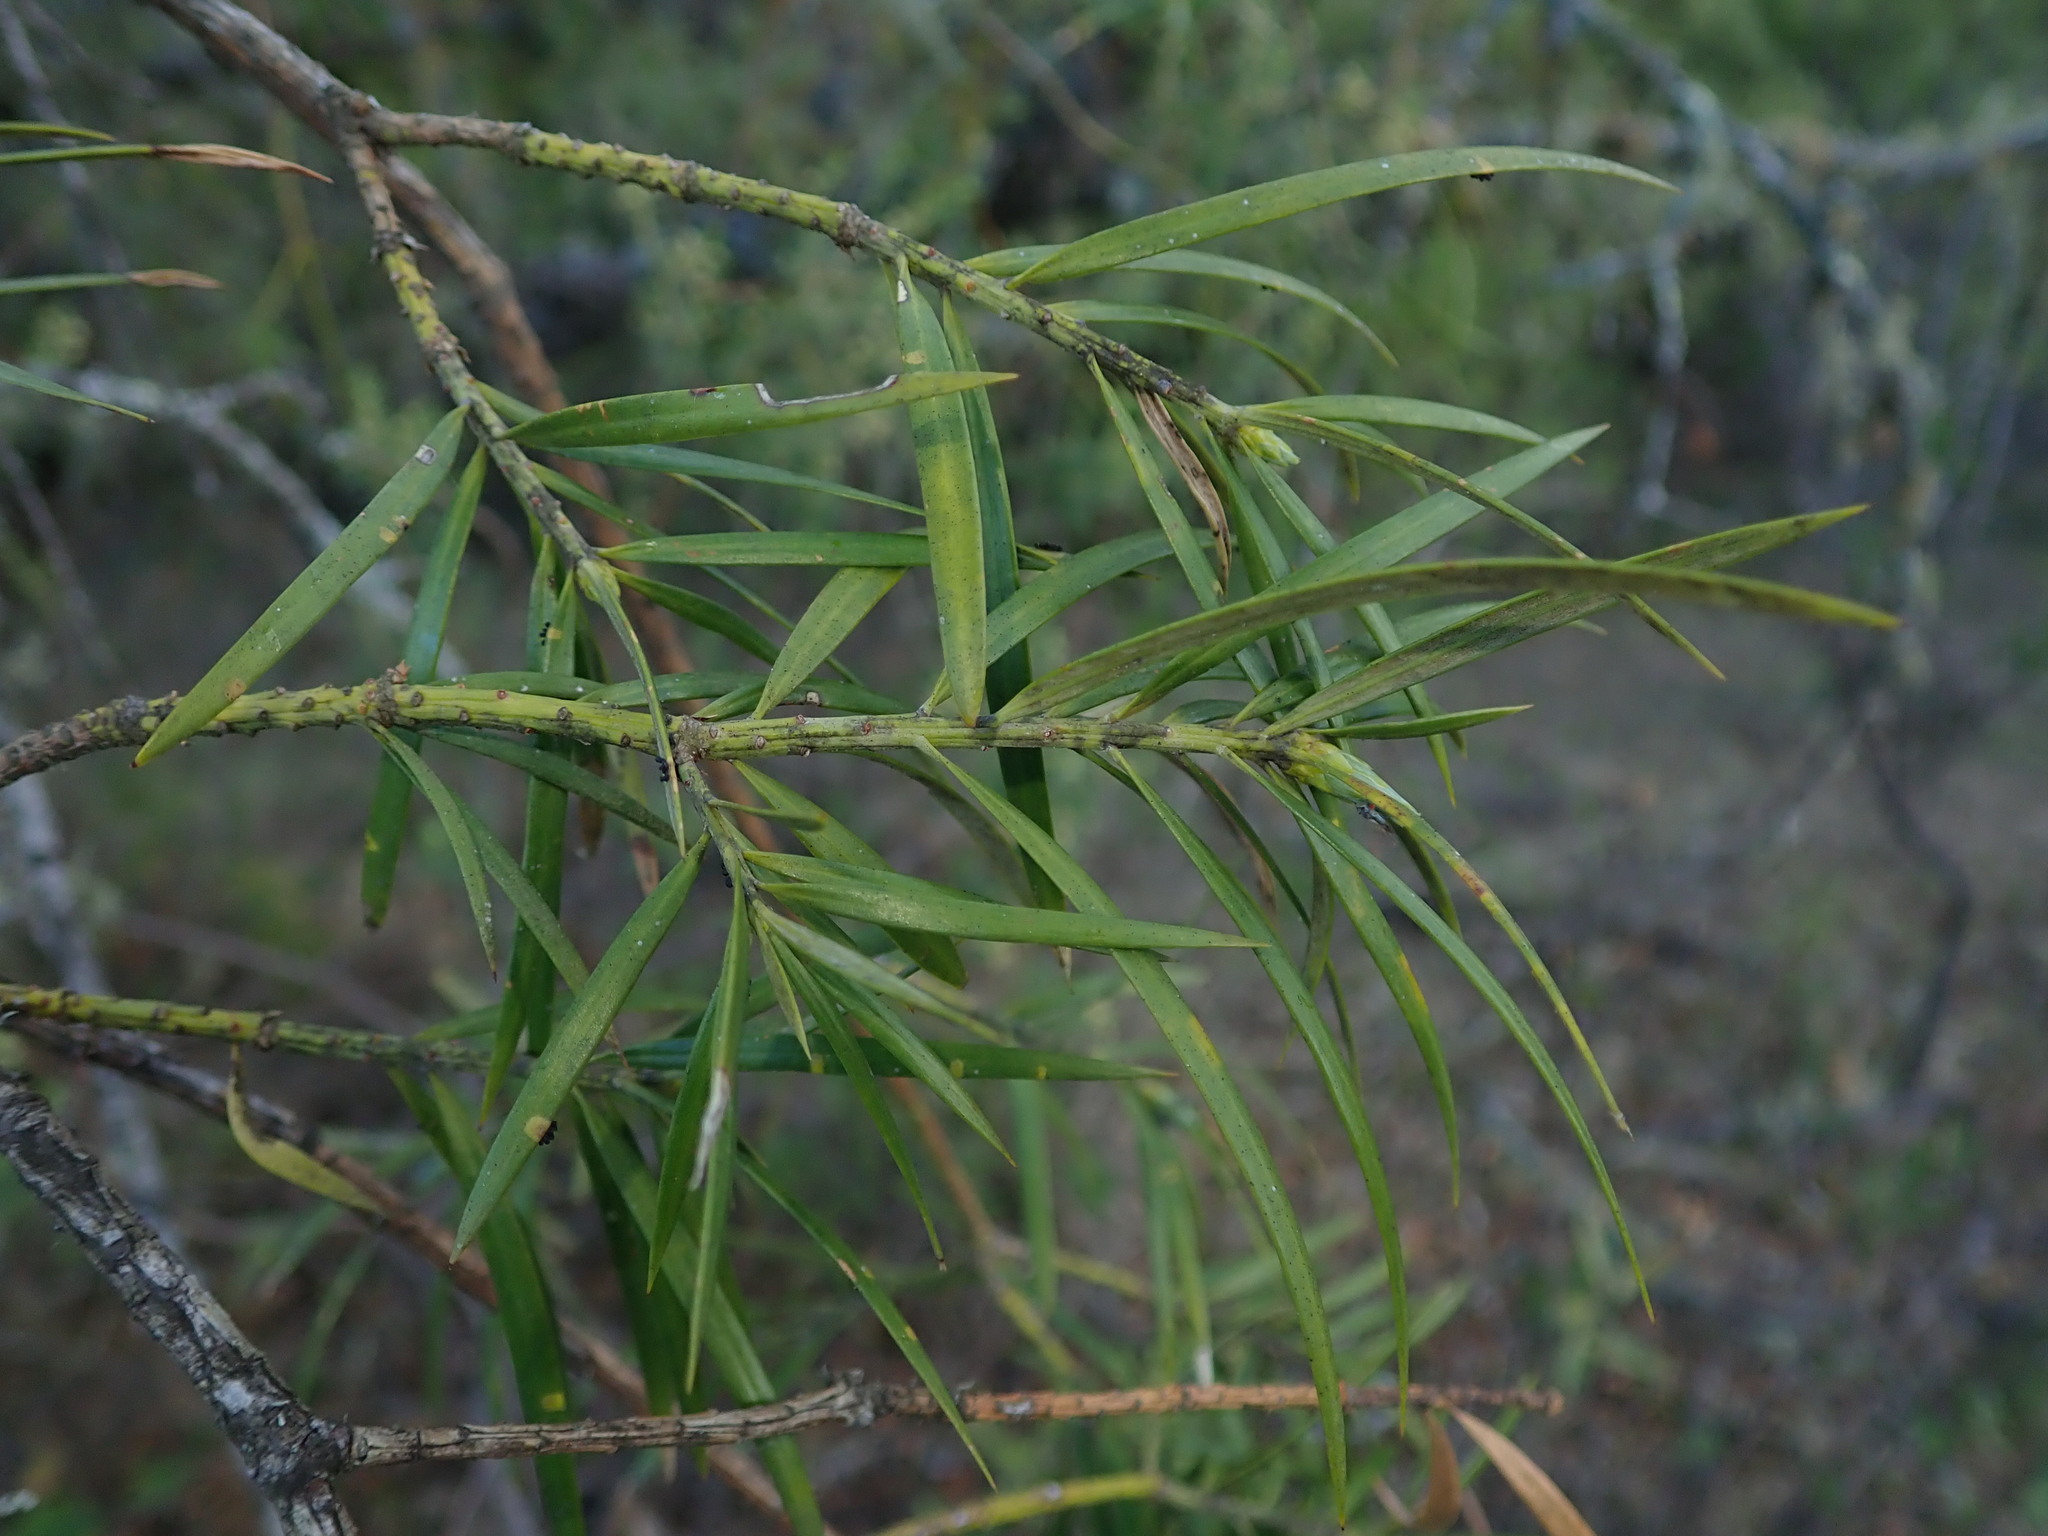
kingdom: Plantae
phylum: Tracheophyta
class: Pinopsida
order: Pinales
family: Podocarpaceae
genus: Podocarpus
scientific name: Podocarpus parlatorei
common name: Pino blanco
